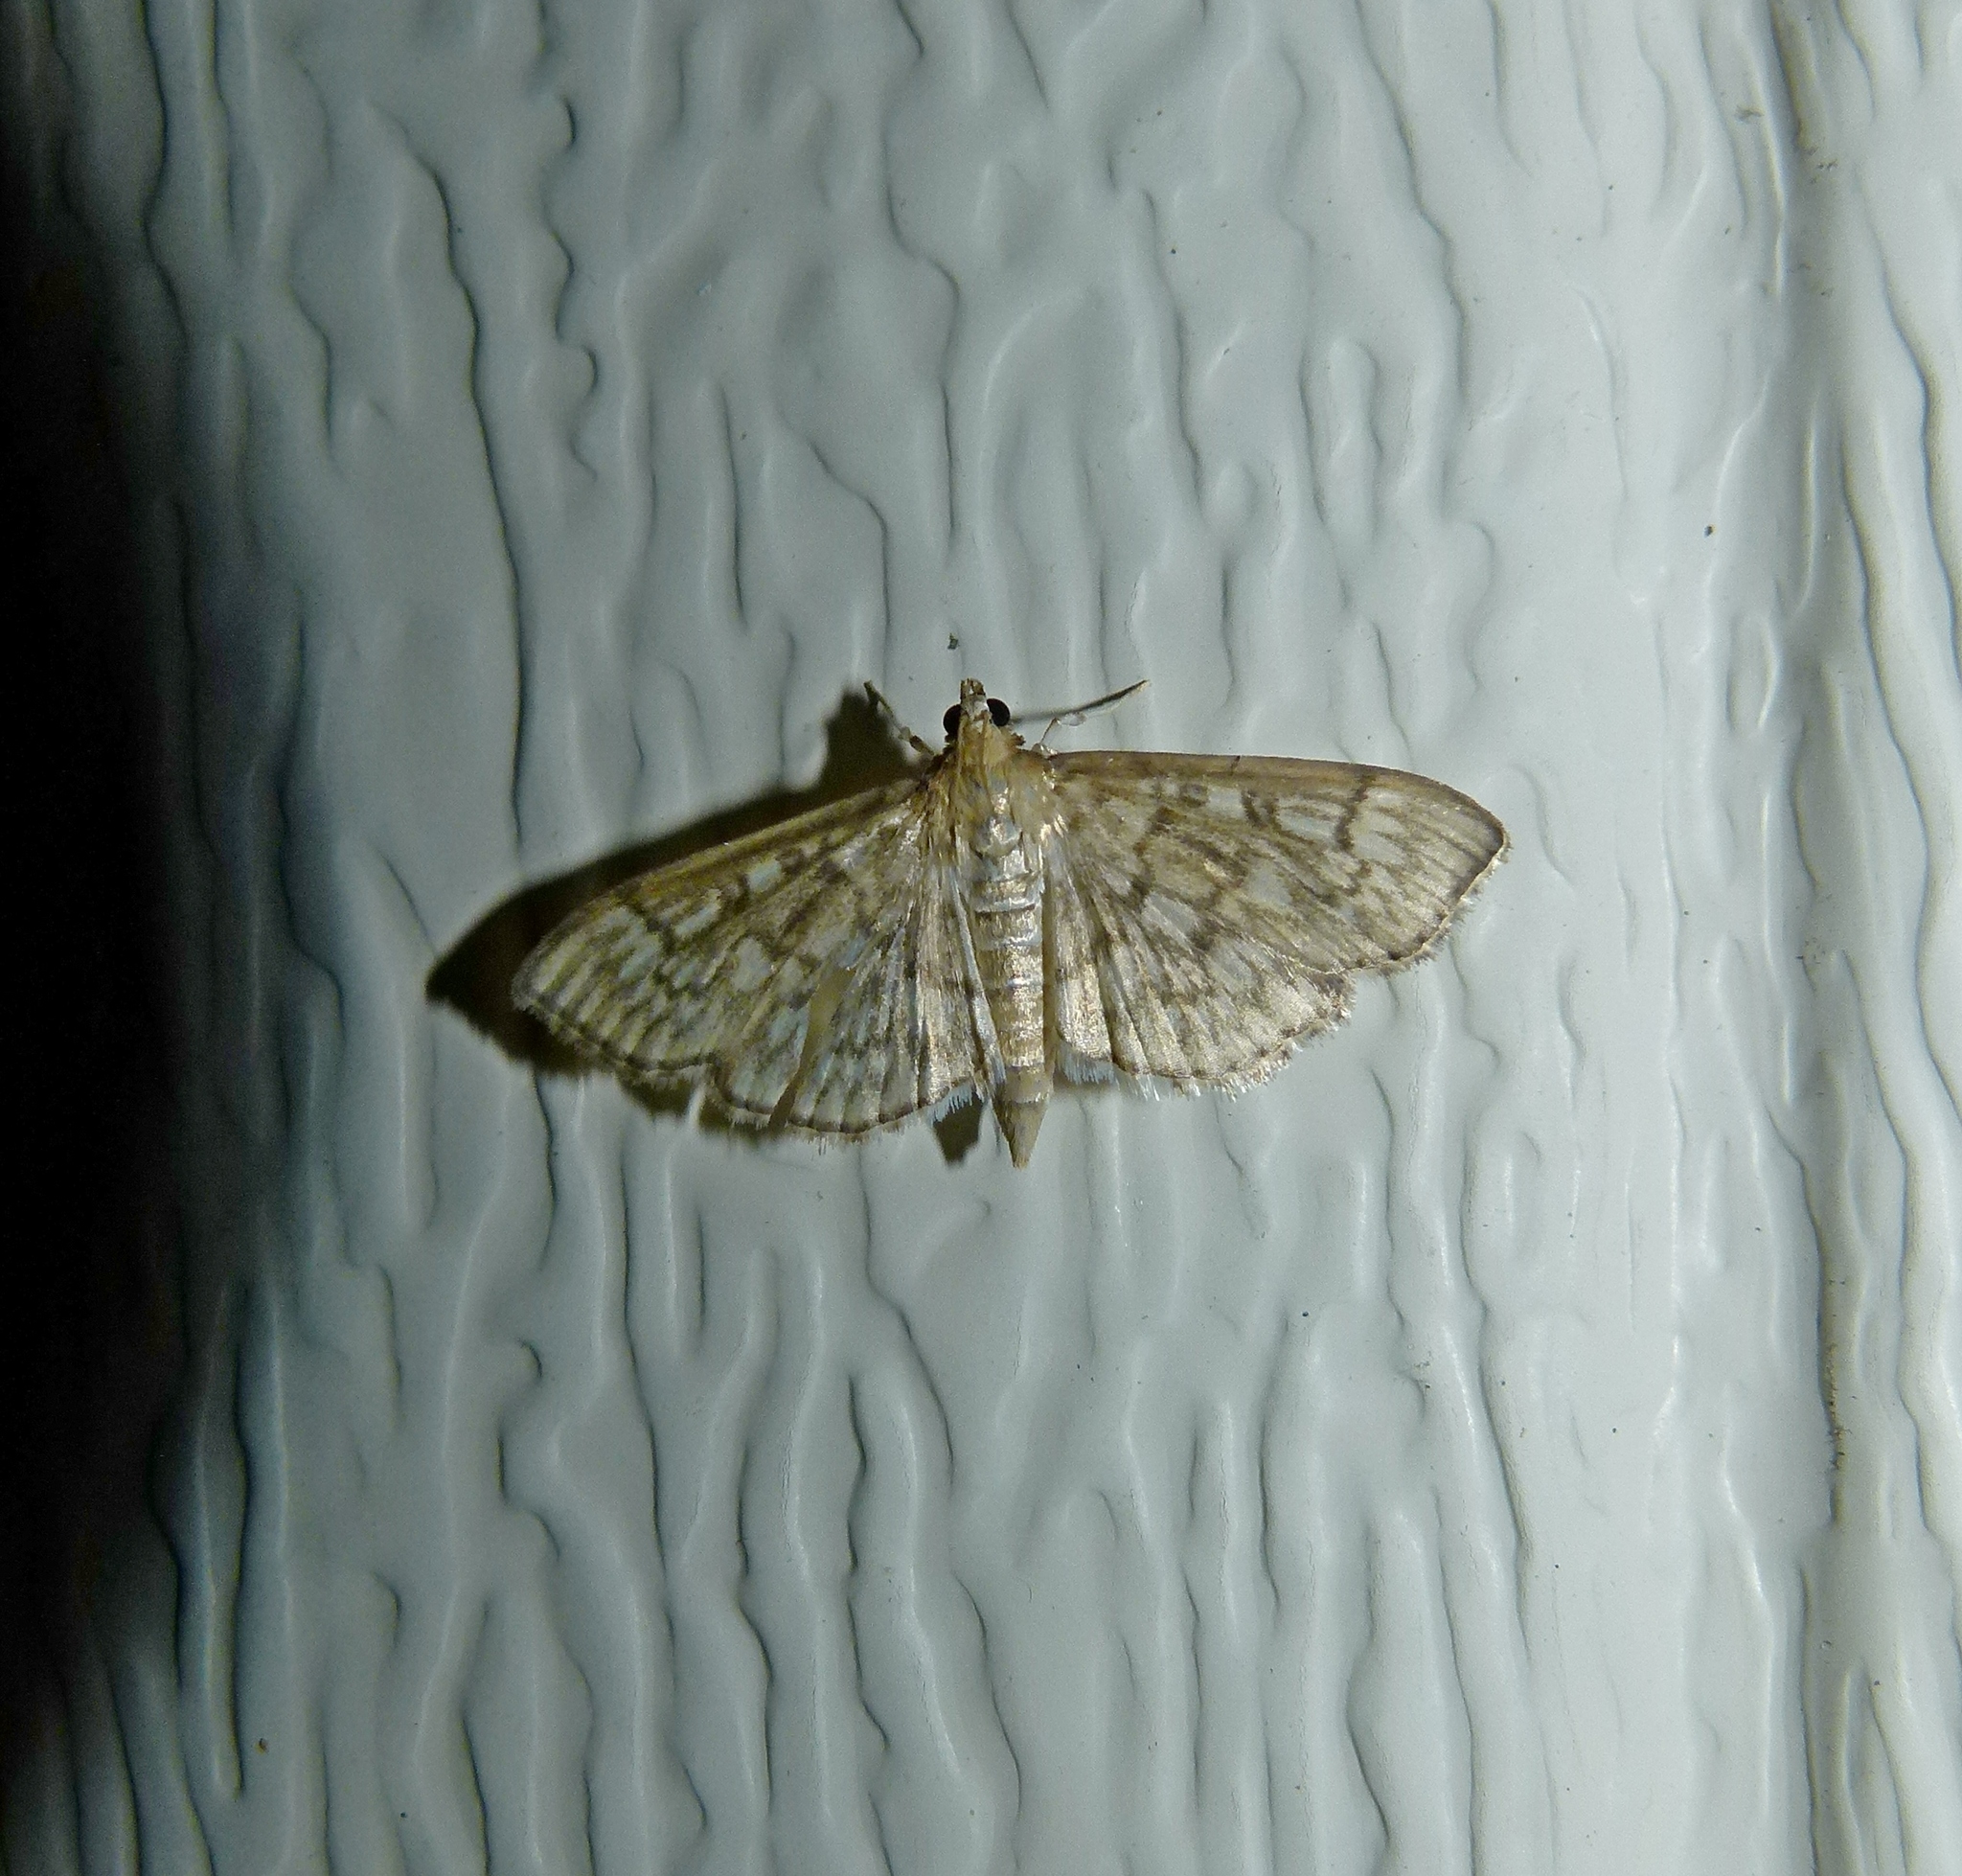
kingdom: Animalia
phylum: Arthropoda
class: Insecta
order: Lepidoptera
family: Crambidae
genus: Herpetogramma
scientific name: Herpetogramma pertextalis
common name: Bold-feathered grass moth
